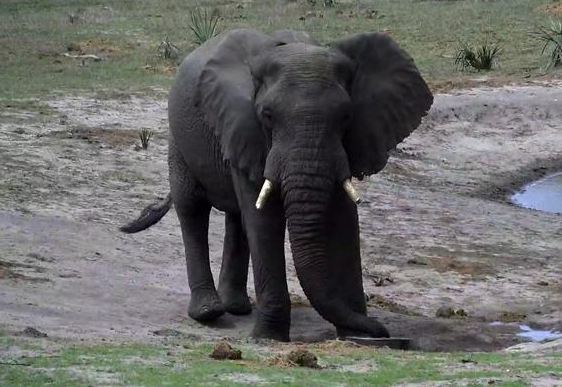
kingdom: Animalia
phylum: Chordata
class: Mammalia
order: Proboscidea
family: Elephantidae
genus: Loxodonta
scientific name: Loxodonta africana
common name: African elephant
